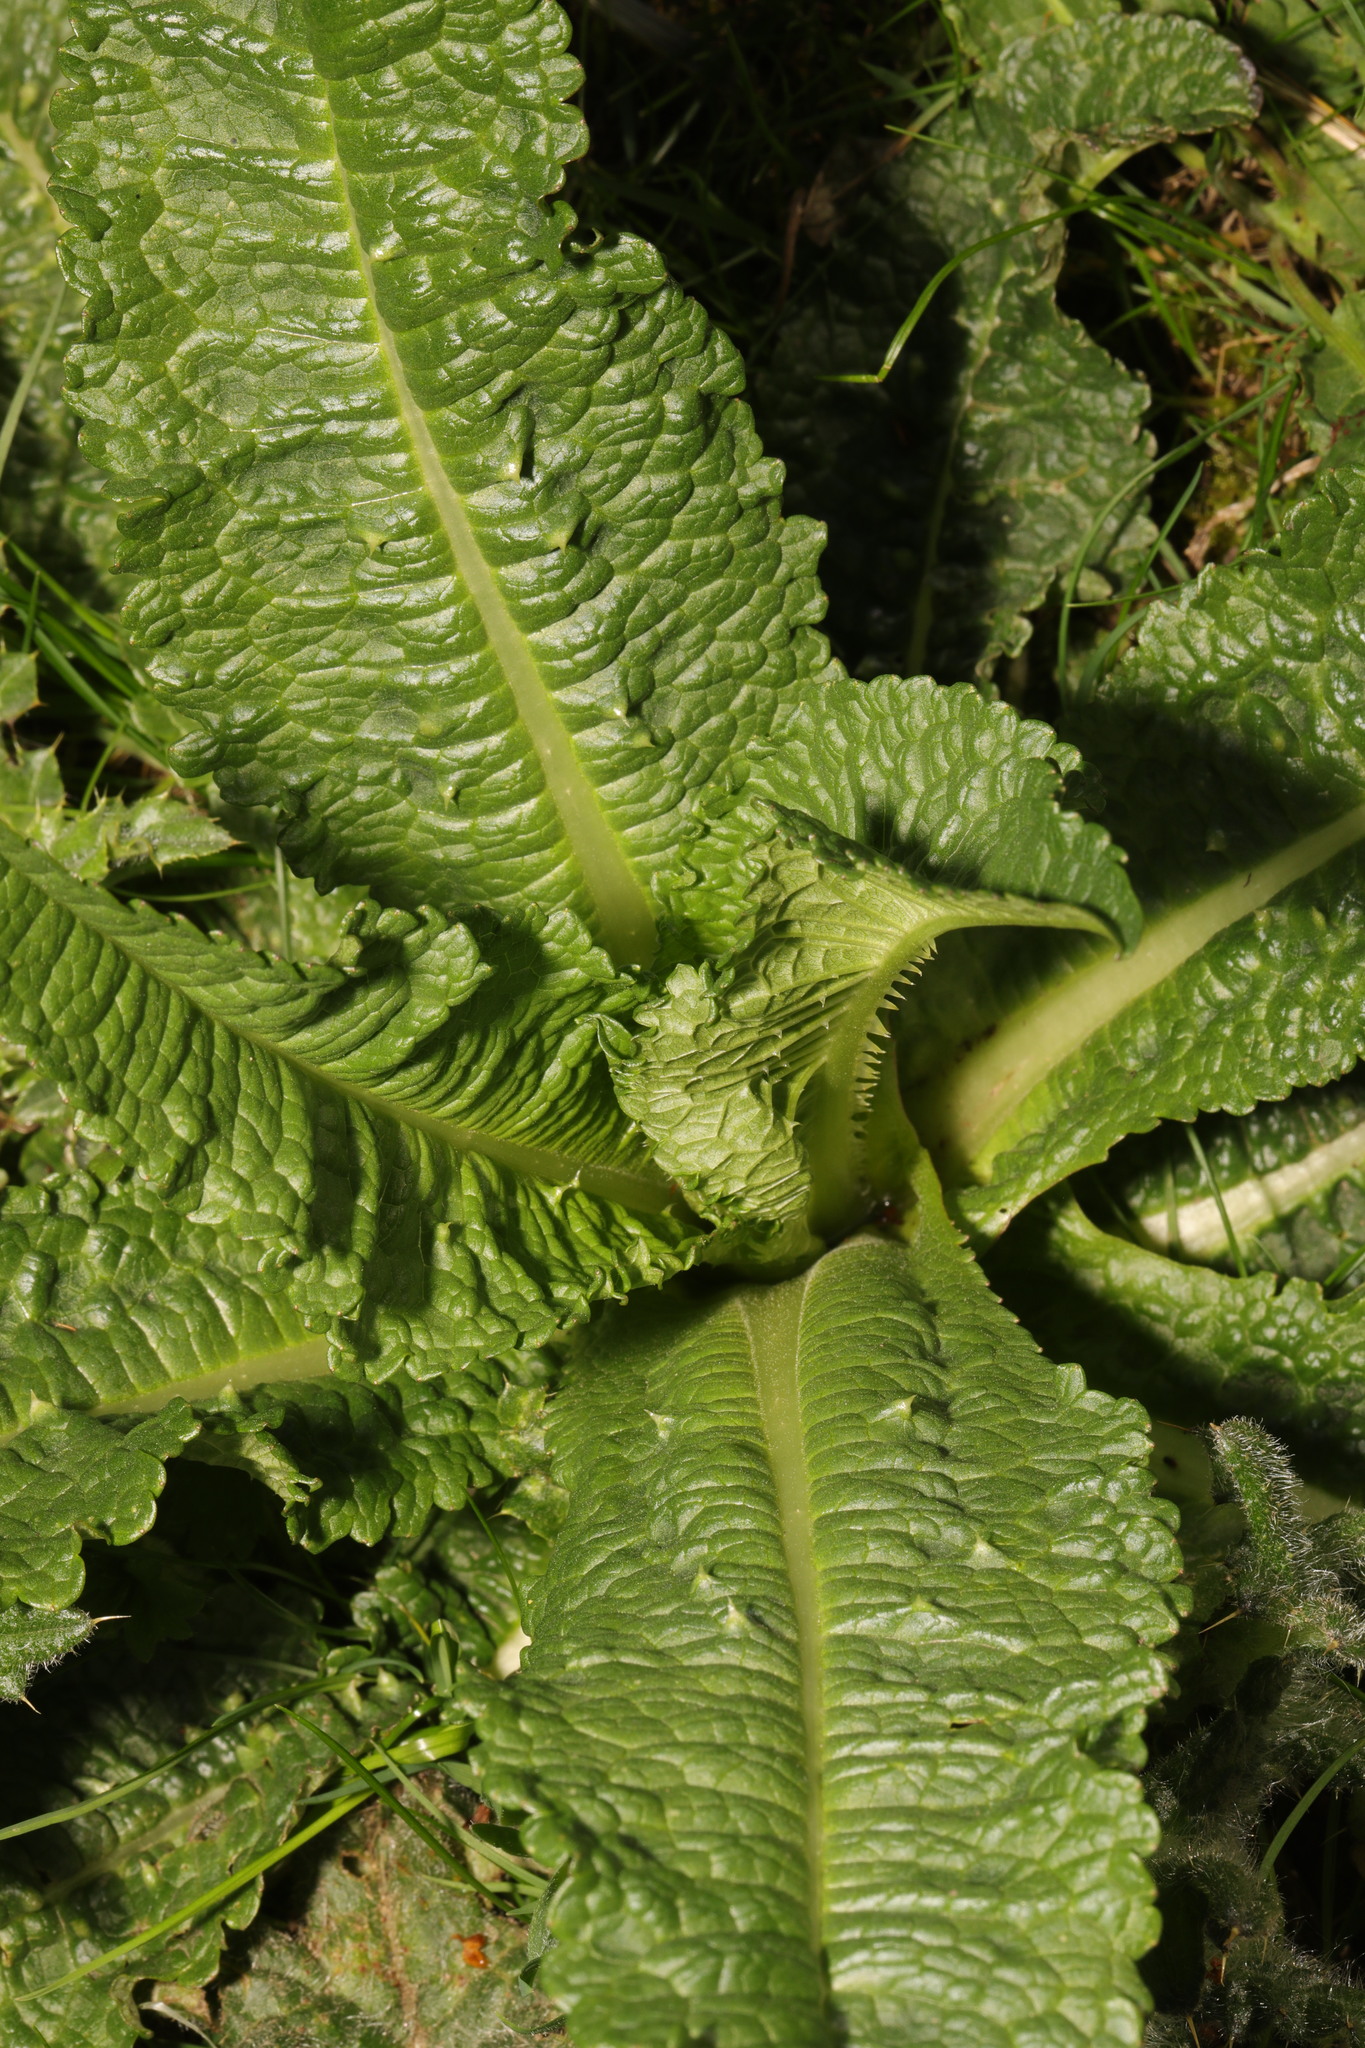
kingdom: Plantae
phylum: Tracheophyta
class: Magnoliopsida
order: Dipsacales
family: Caprifoliaceae
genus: Dipsacus
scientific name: Dipsacus fullonum
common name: Teasel
